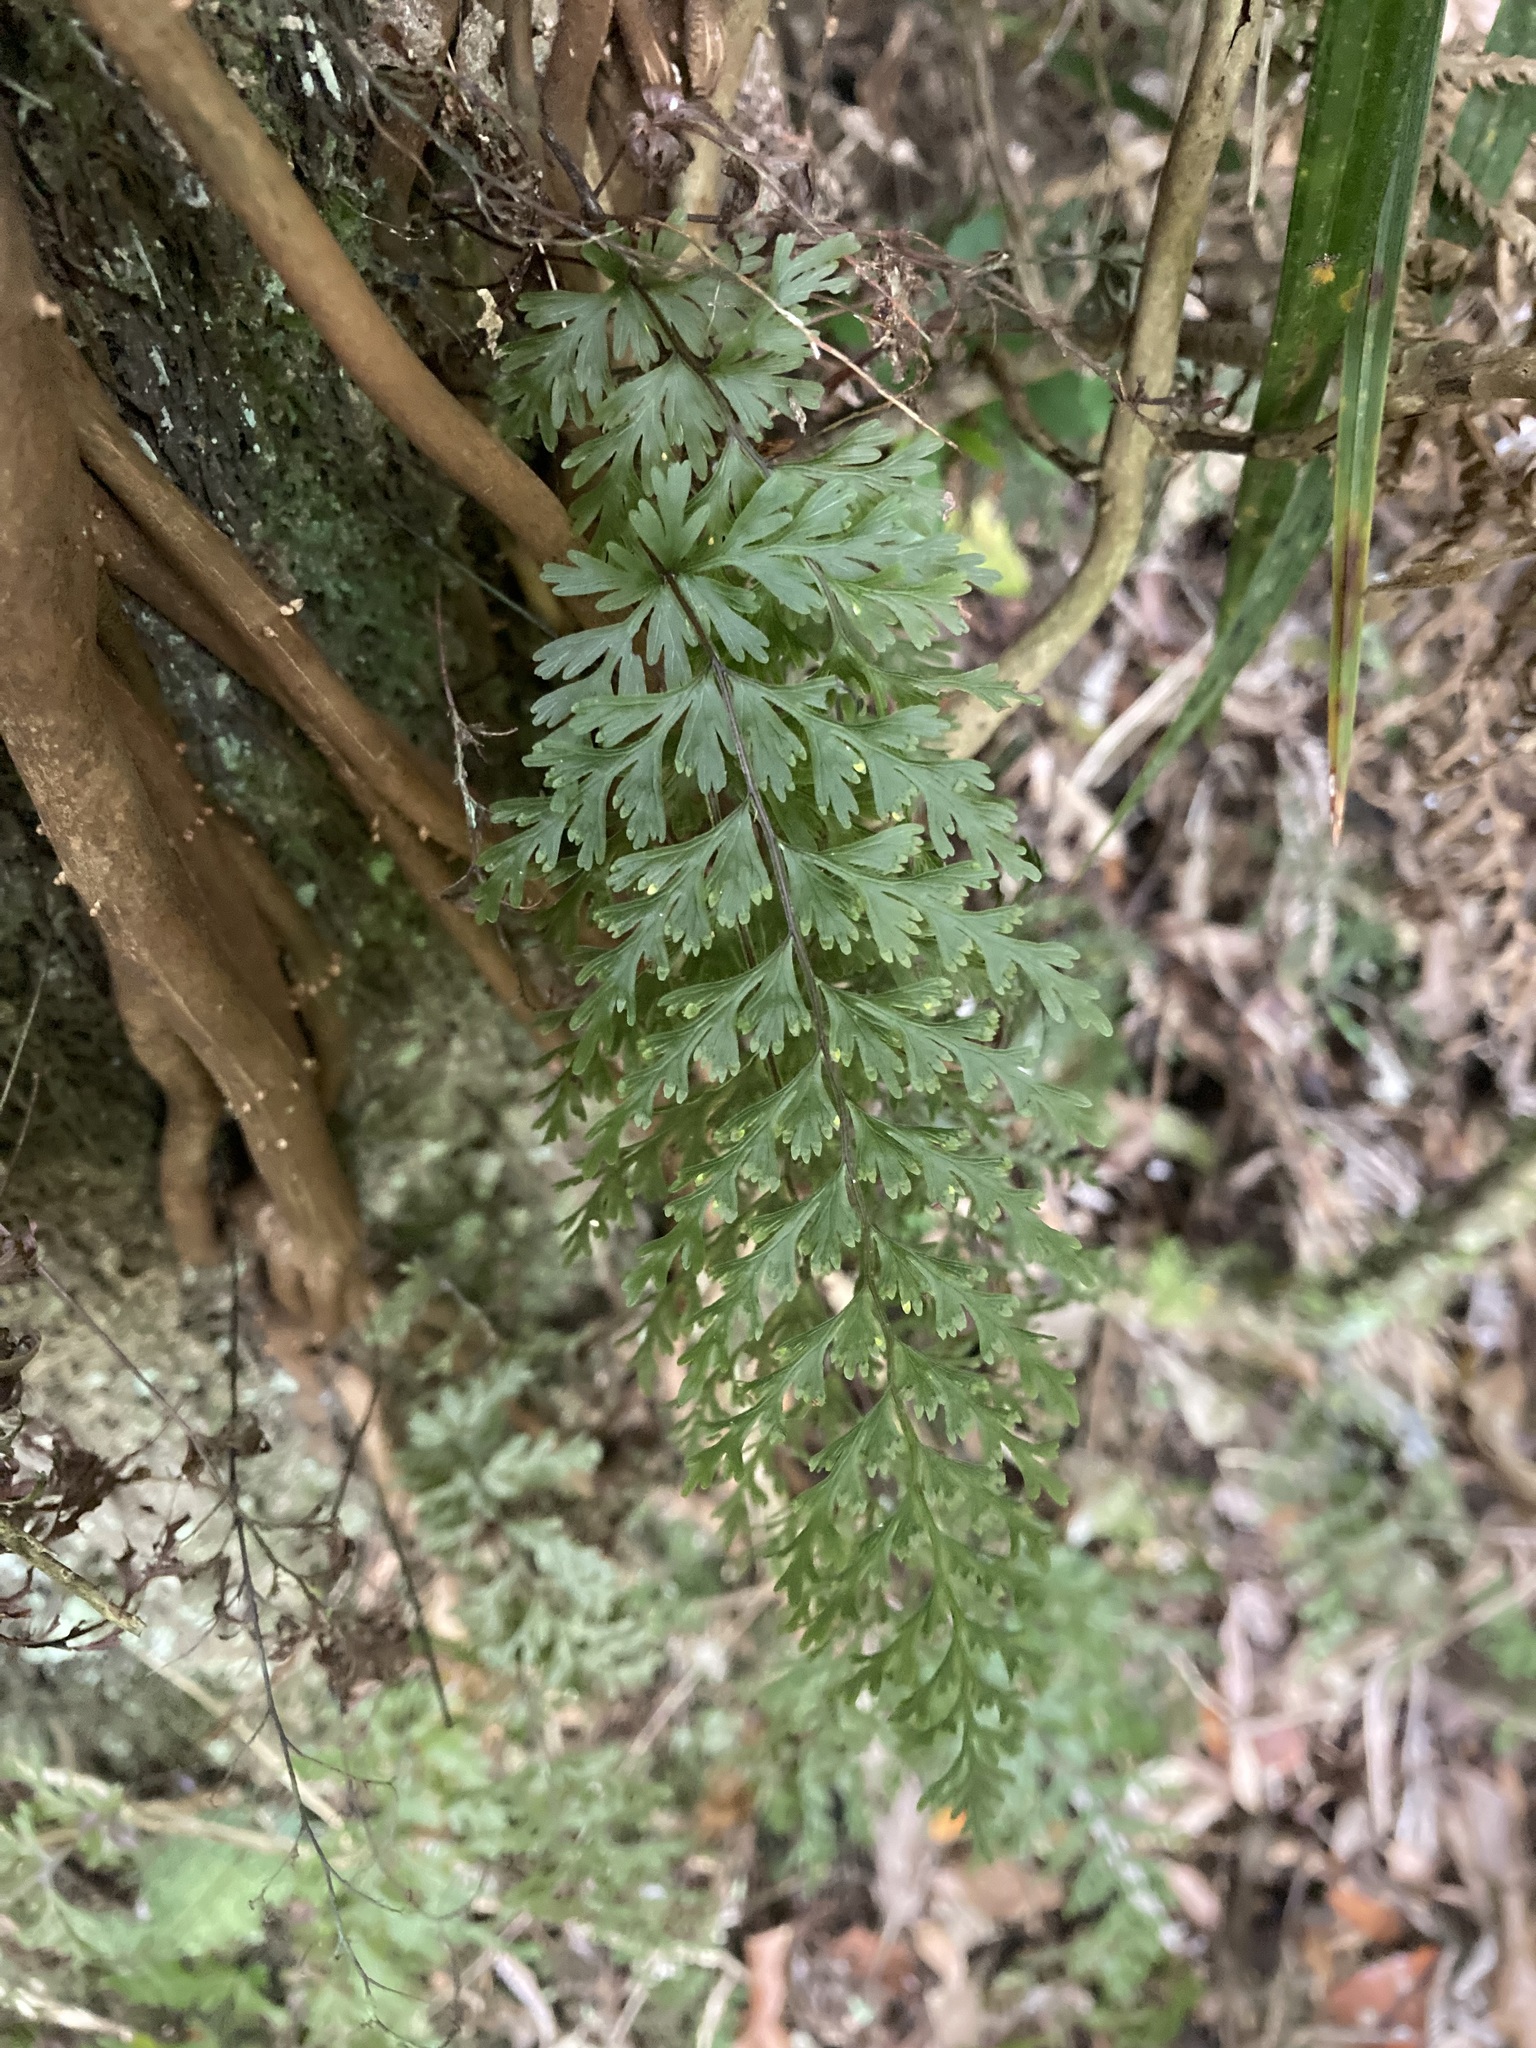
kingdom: Plantae
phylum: Tracheophyta
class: Polypodiopsida
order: Hymenophyllales
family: Hymenophyllaceae
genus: Hymenophyllum
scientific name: Hymenophyllum demissum
